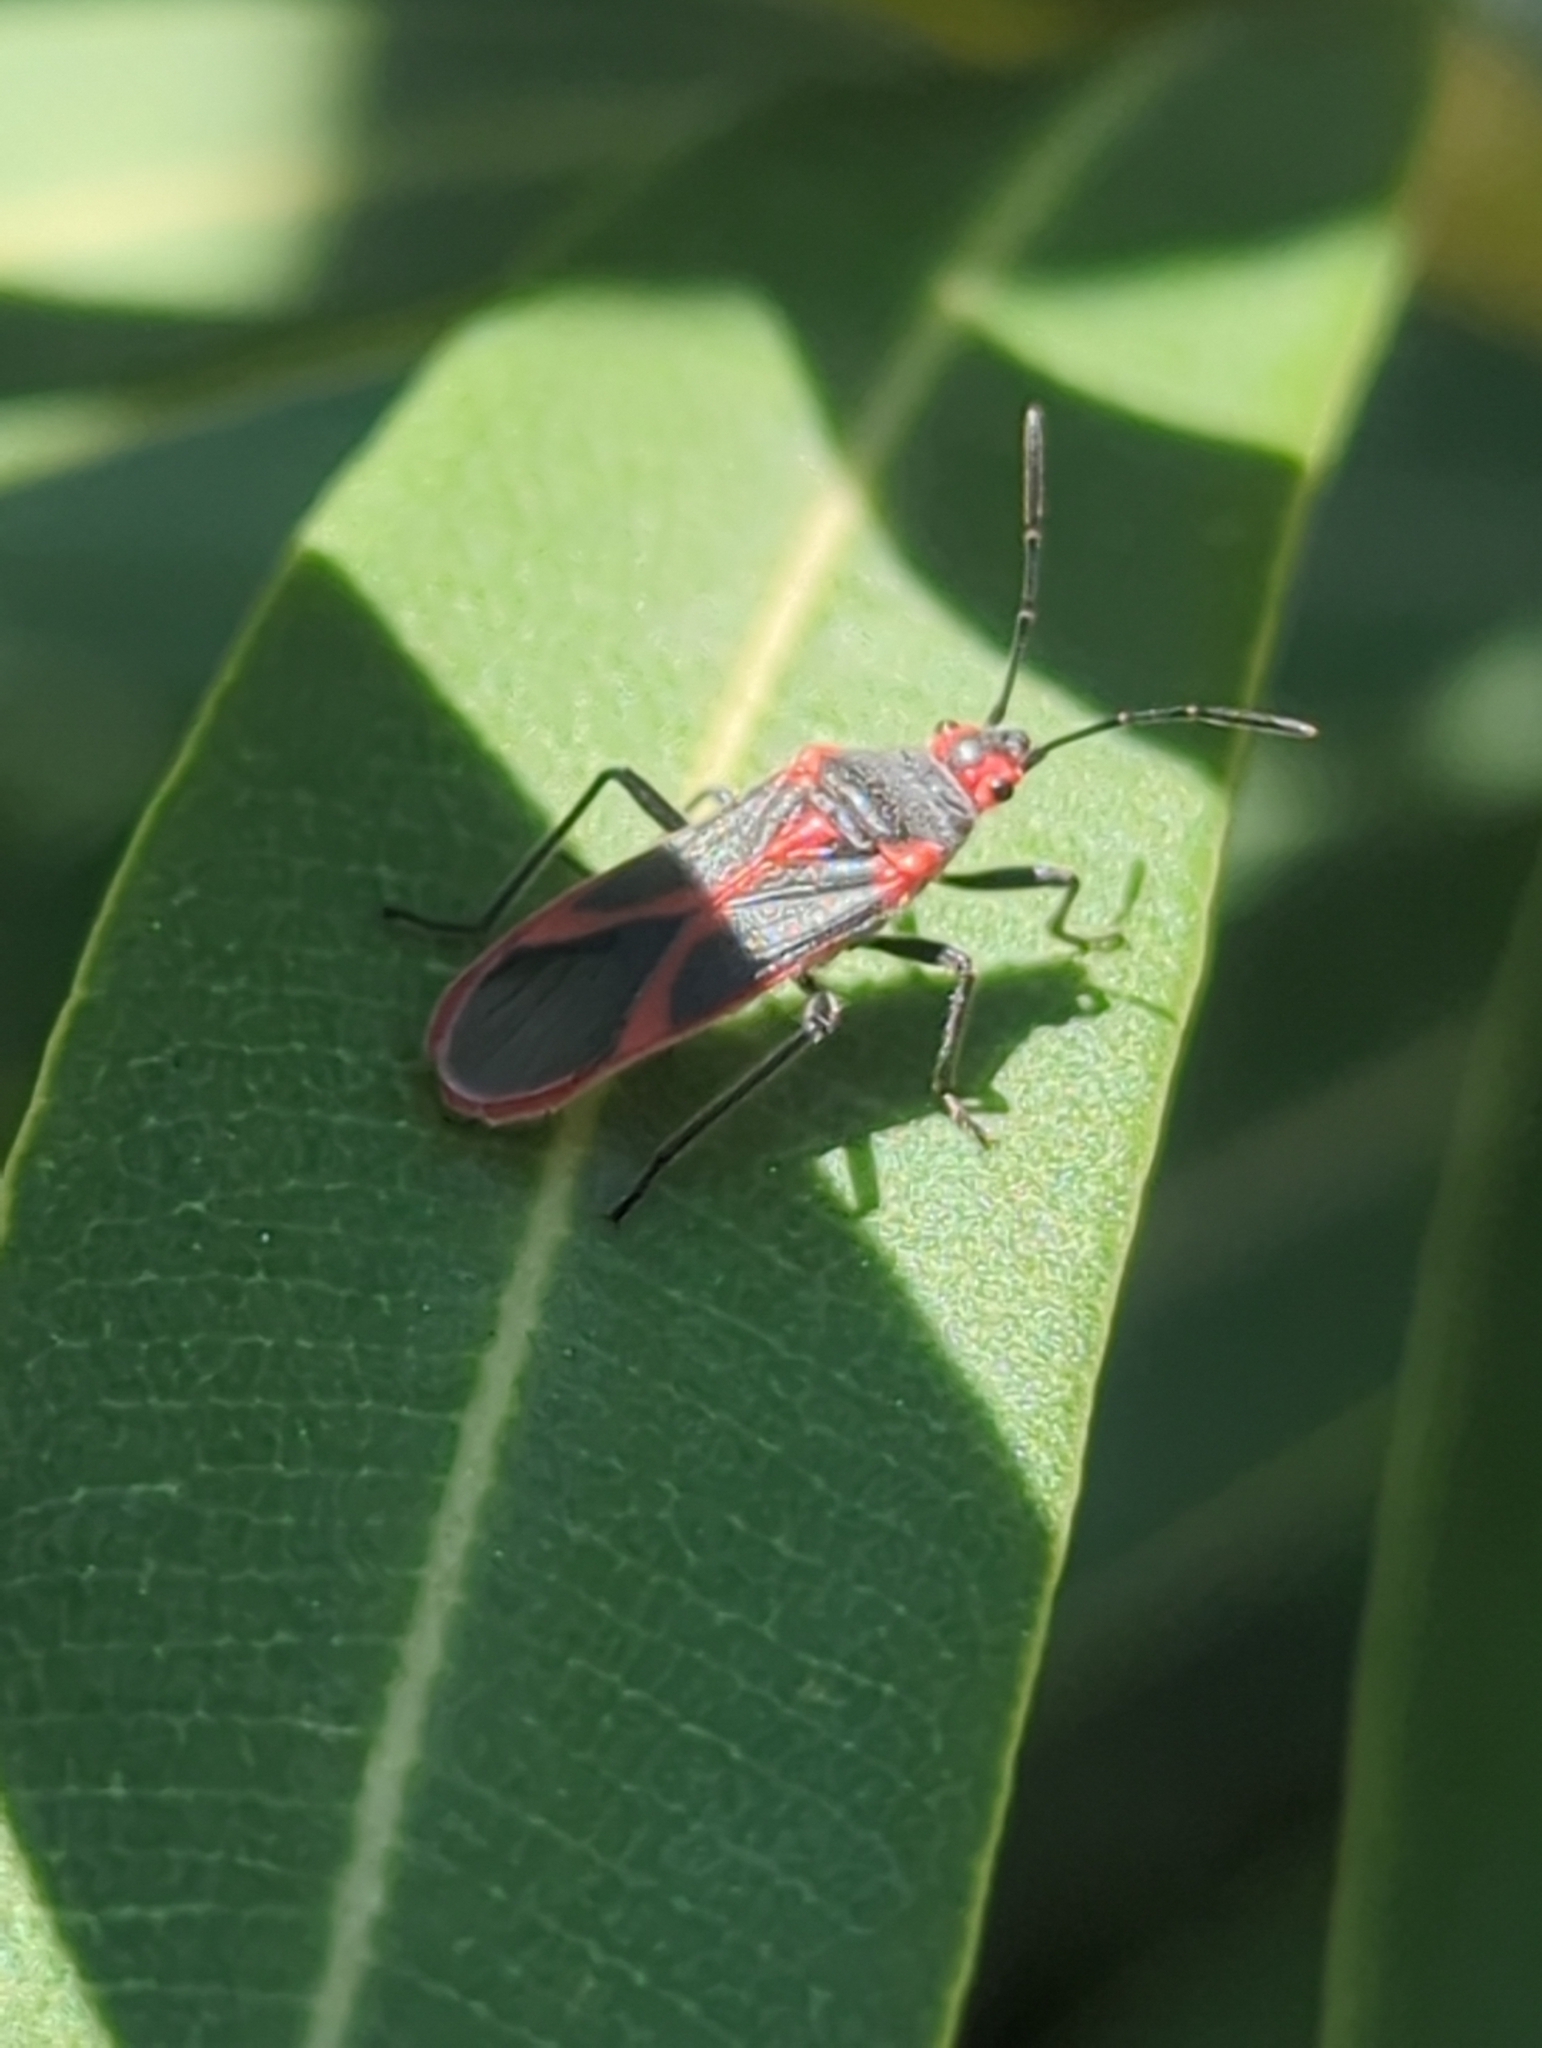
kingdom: Animalia
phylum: Arthropoda
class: Insecta
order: Hemiptera
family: Lygaeidae
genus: Caenocoris
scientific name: Caenocoris nerii
